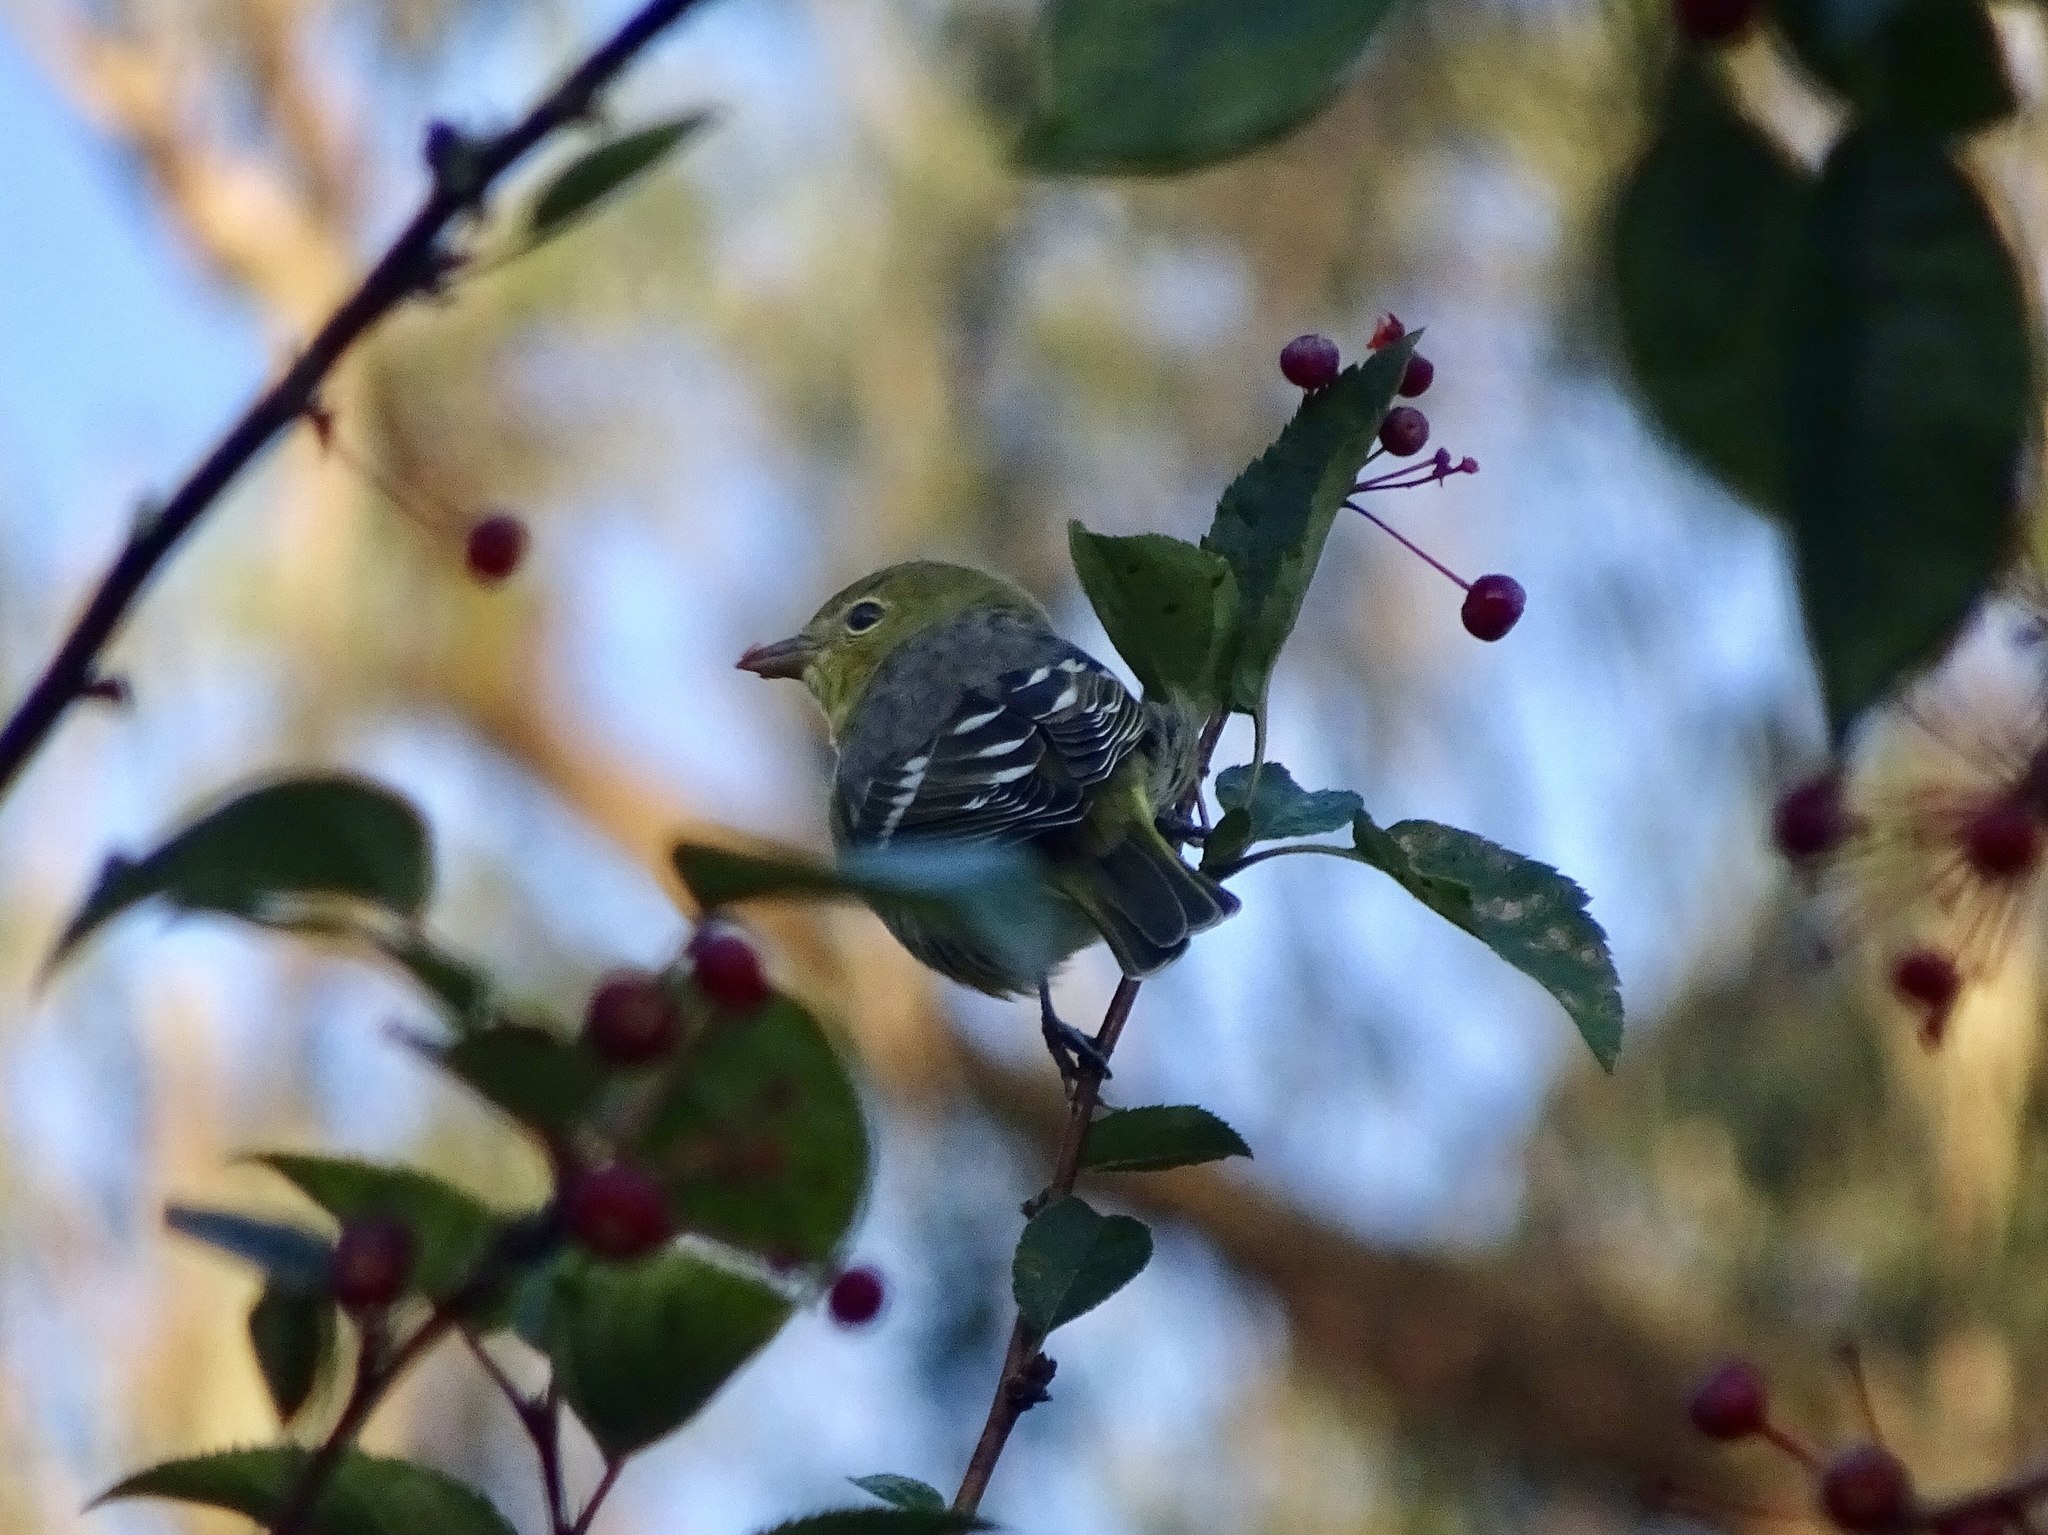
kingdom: Animalia
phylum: Chordata
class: Aves
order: Passeriformes
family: Cardinalidae
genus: Piranga
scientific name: Piranga ludoviciana
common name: Western tanager
